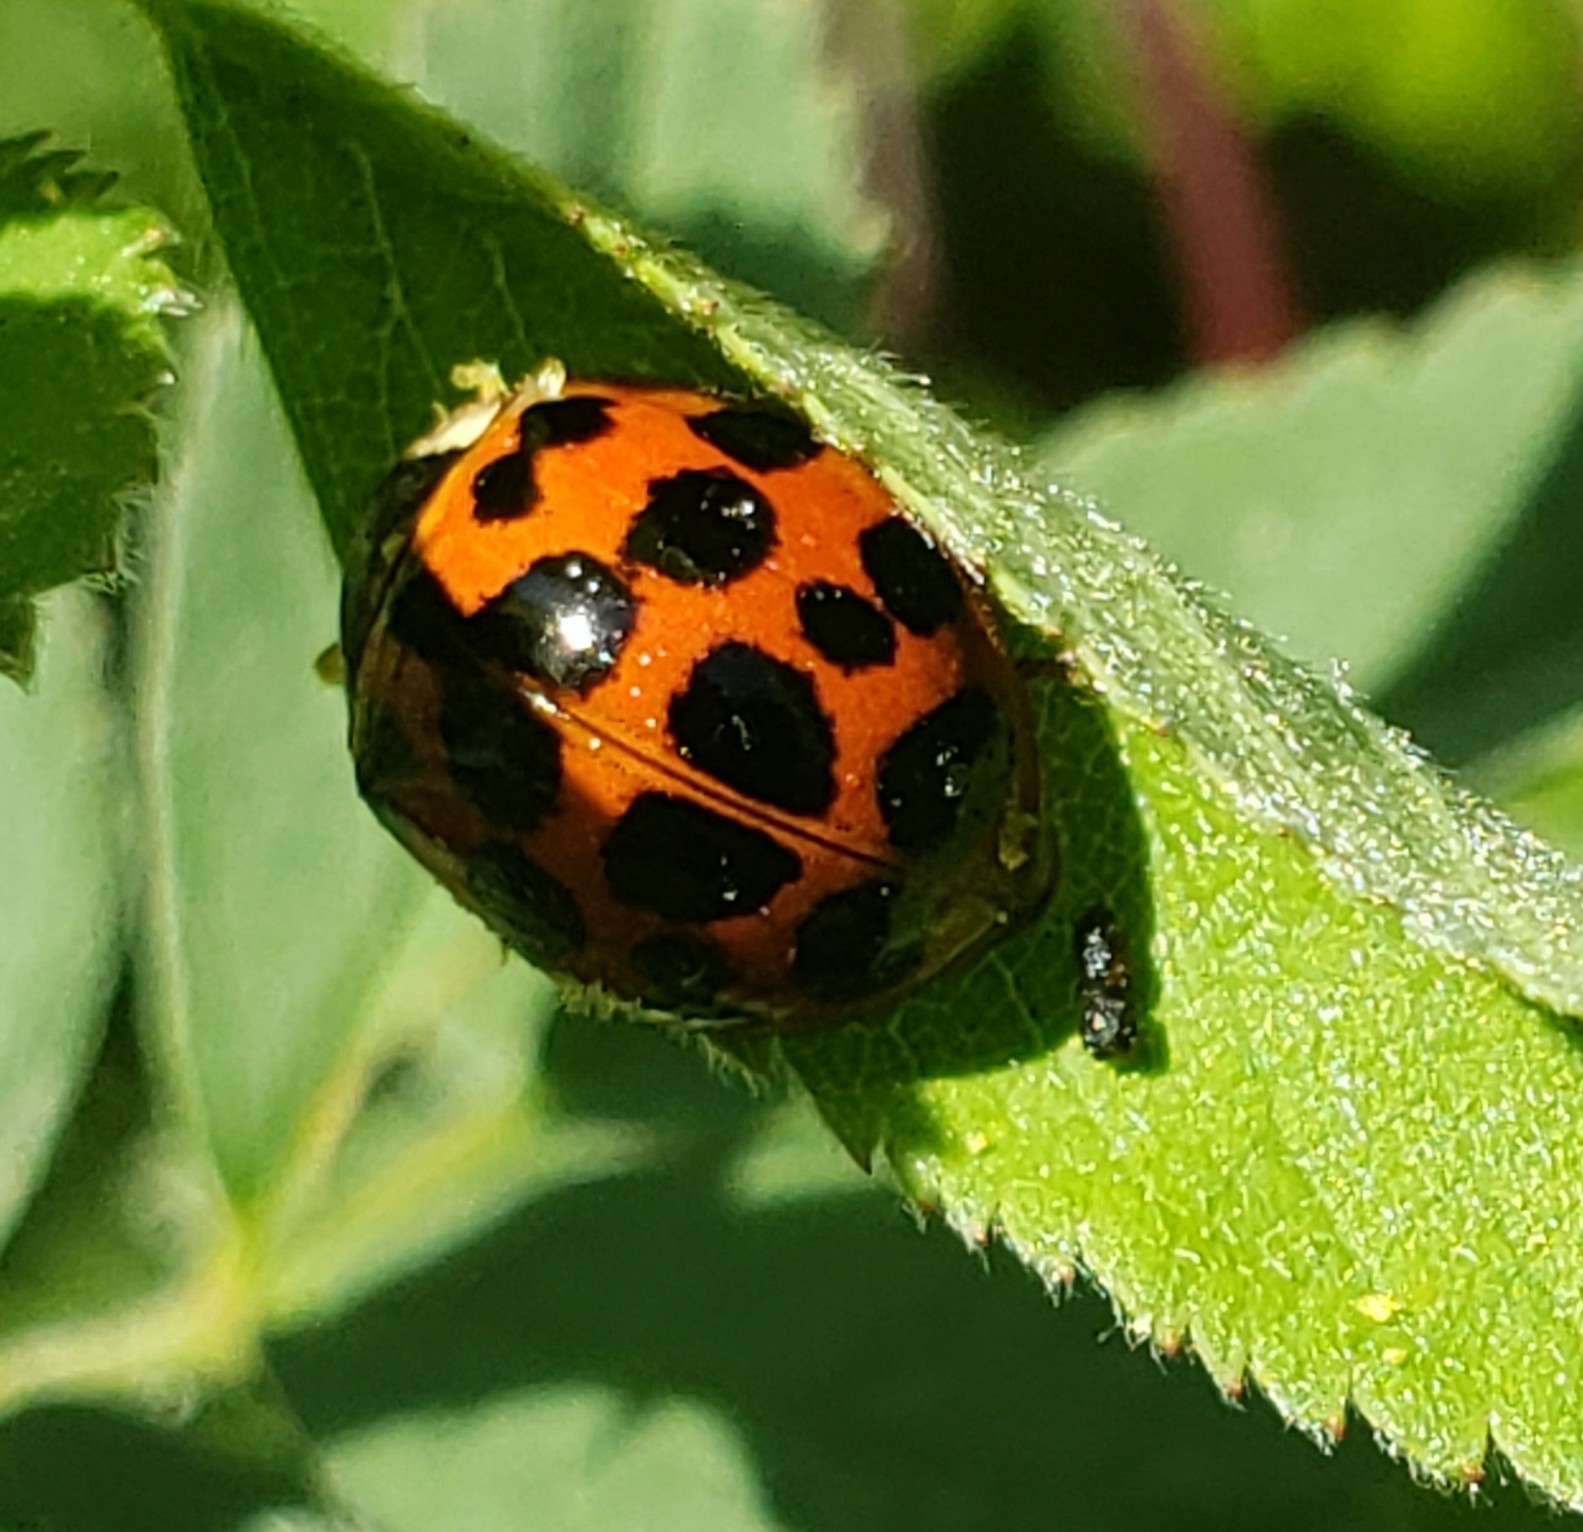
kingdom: Animalia
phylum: Arthropoda
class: Insecta
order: Coleoptera
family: Coccinellidae
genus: Harmonia
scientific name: Harmonia axyridis
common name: Harlequin ladybird
